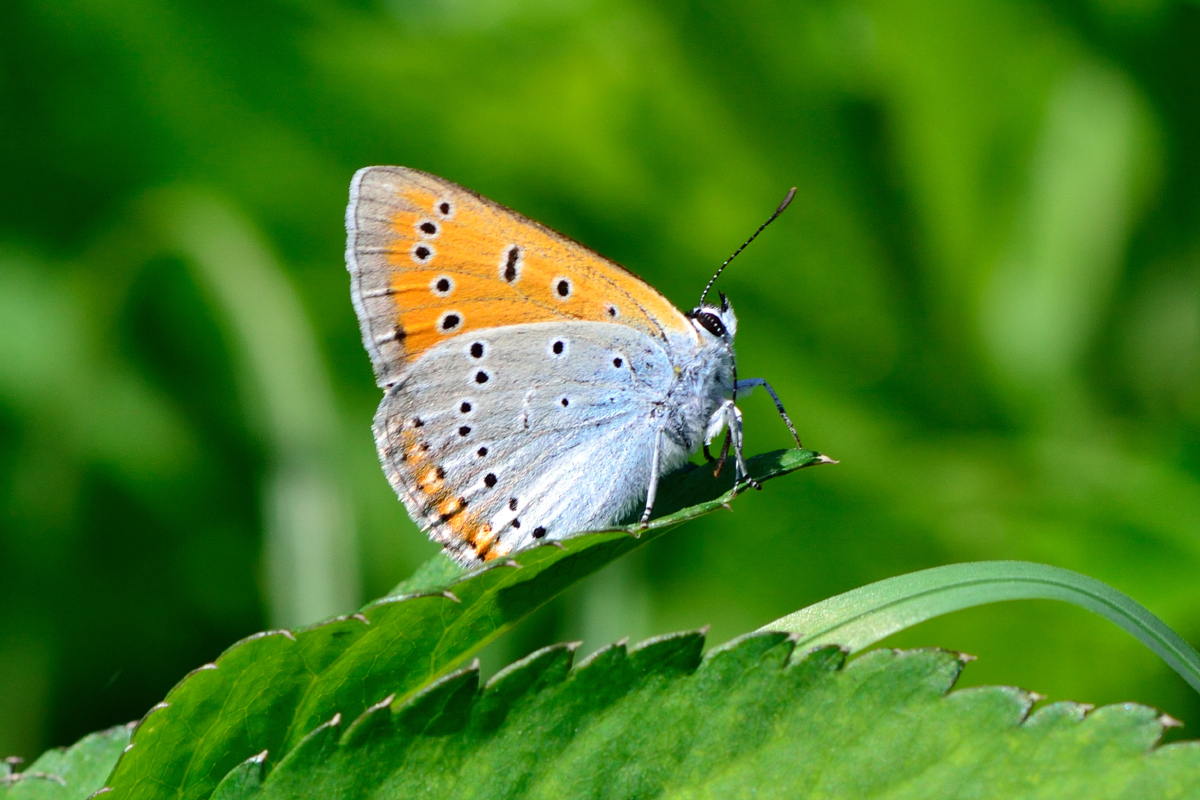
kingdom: Animalia
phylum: Arthropoda
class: Insecta
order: Lepidoptera
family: Lycaenidae
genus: Lycaena
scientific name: Lycaena dispar
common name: Large copper
